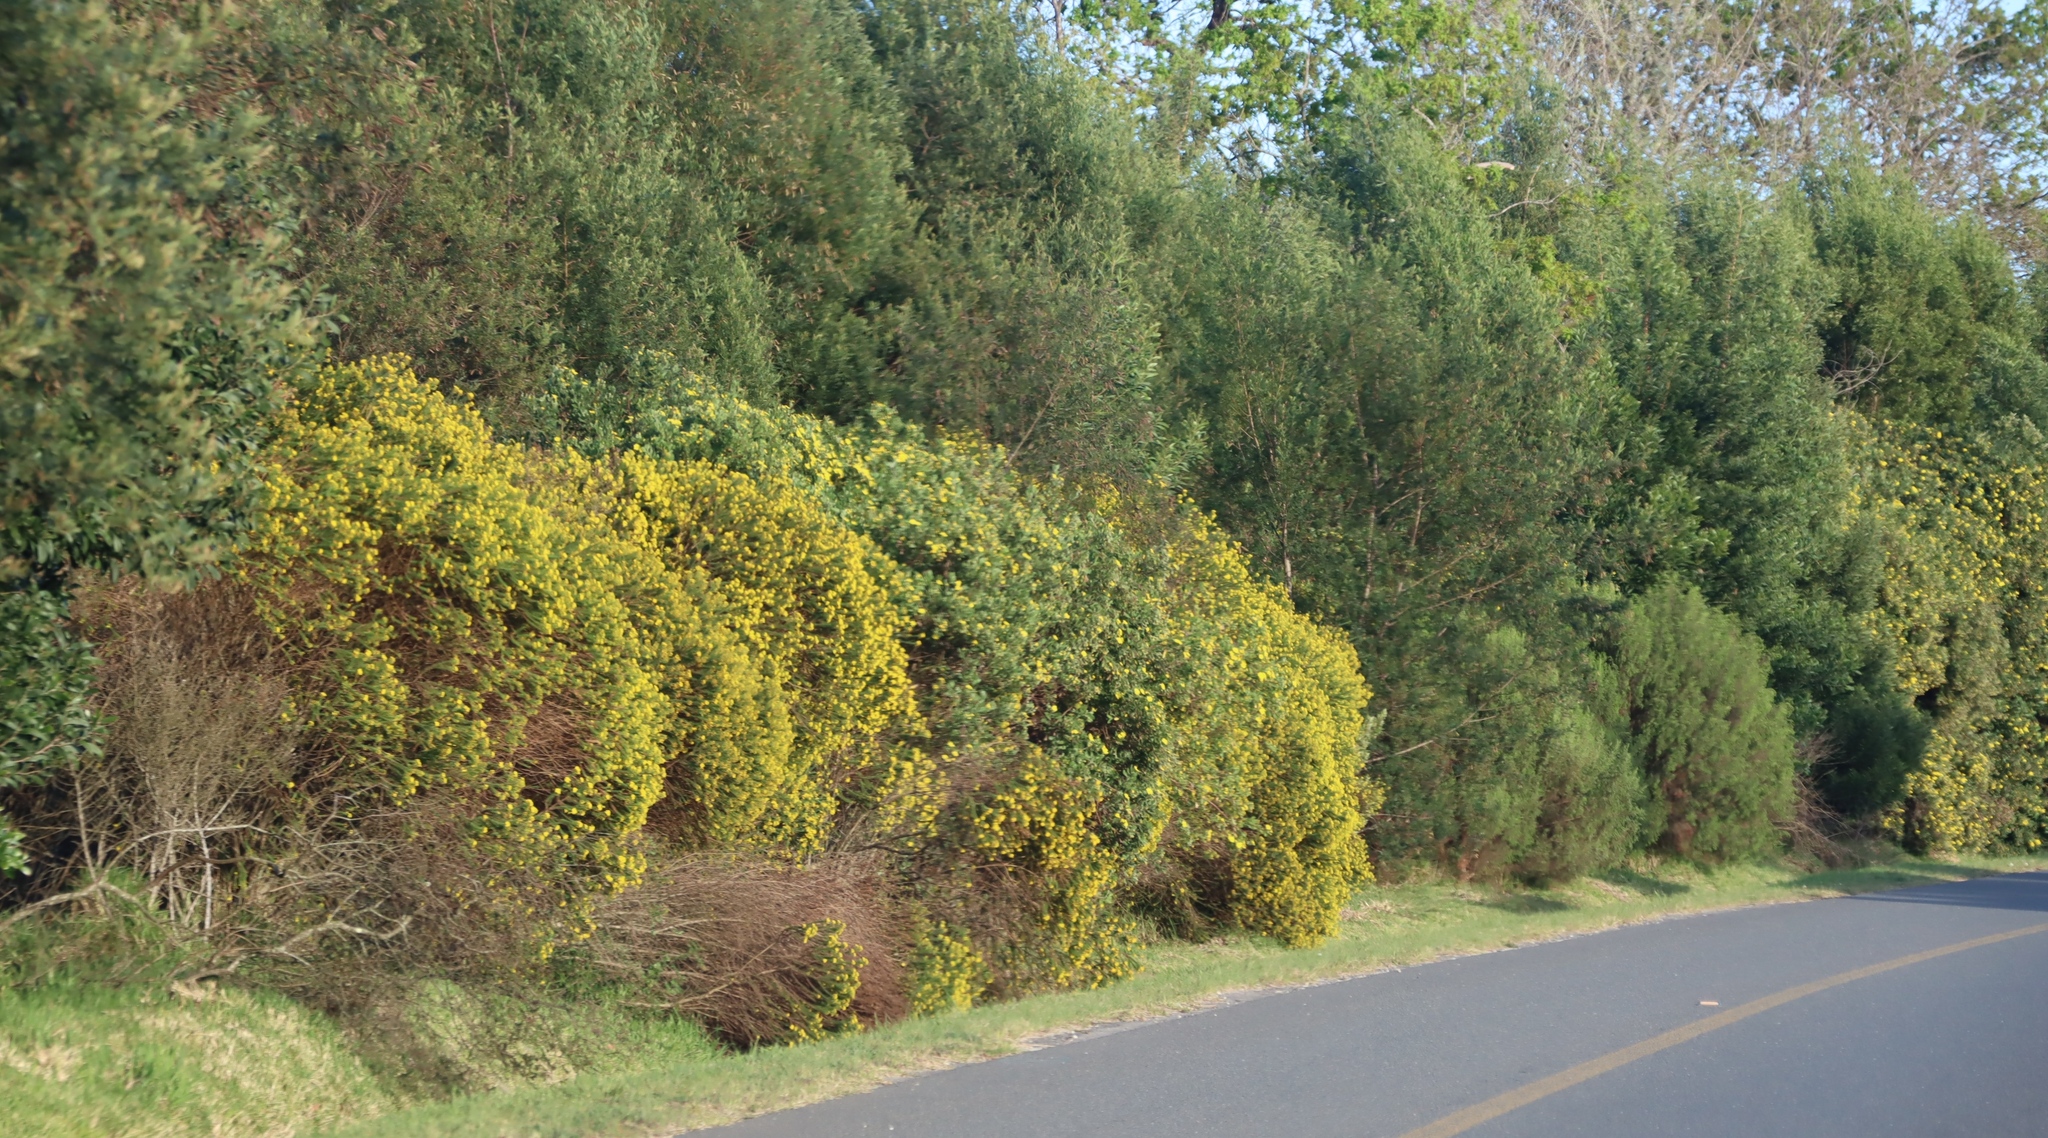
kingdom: Plantae
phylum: Tracheophyta
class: Magnoliopsida
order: Asterales
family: Asteraceae
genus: Euryops
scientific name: Euryops virgineus
